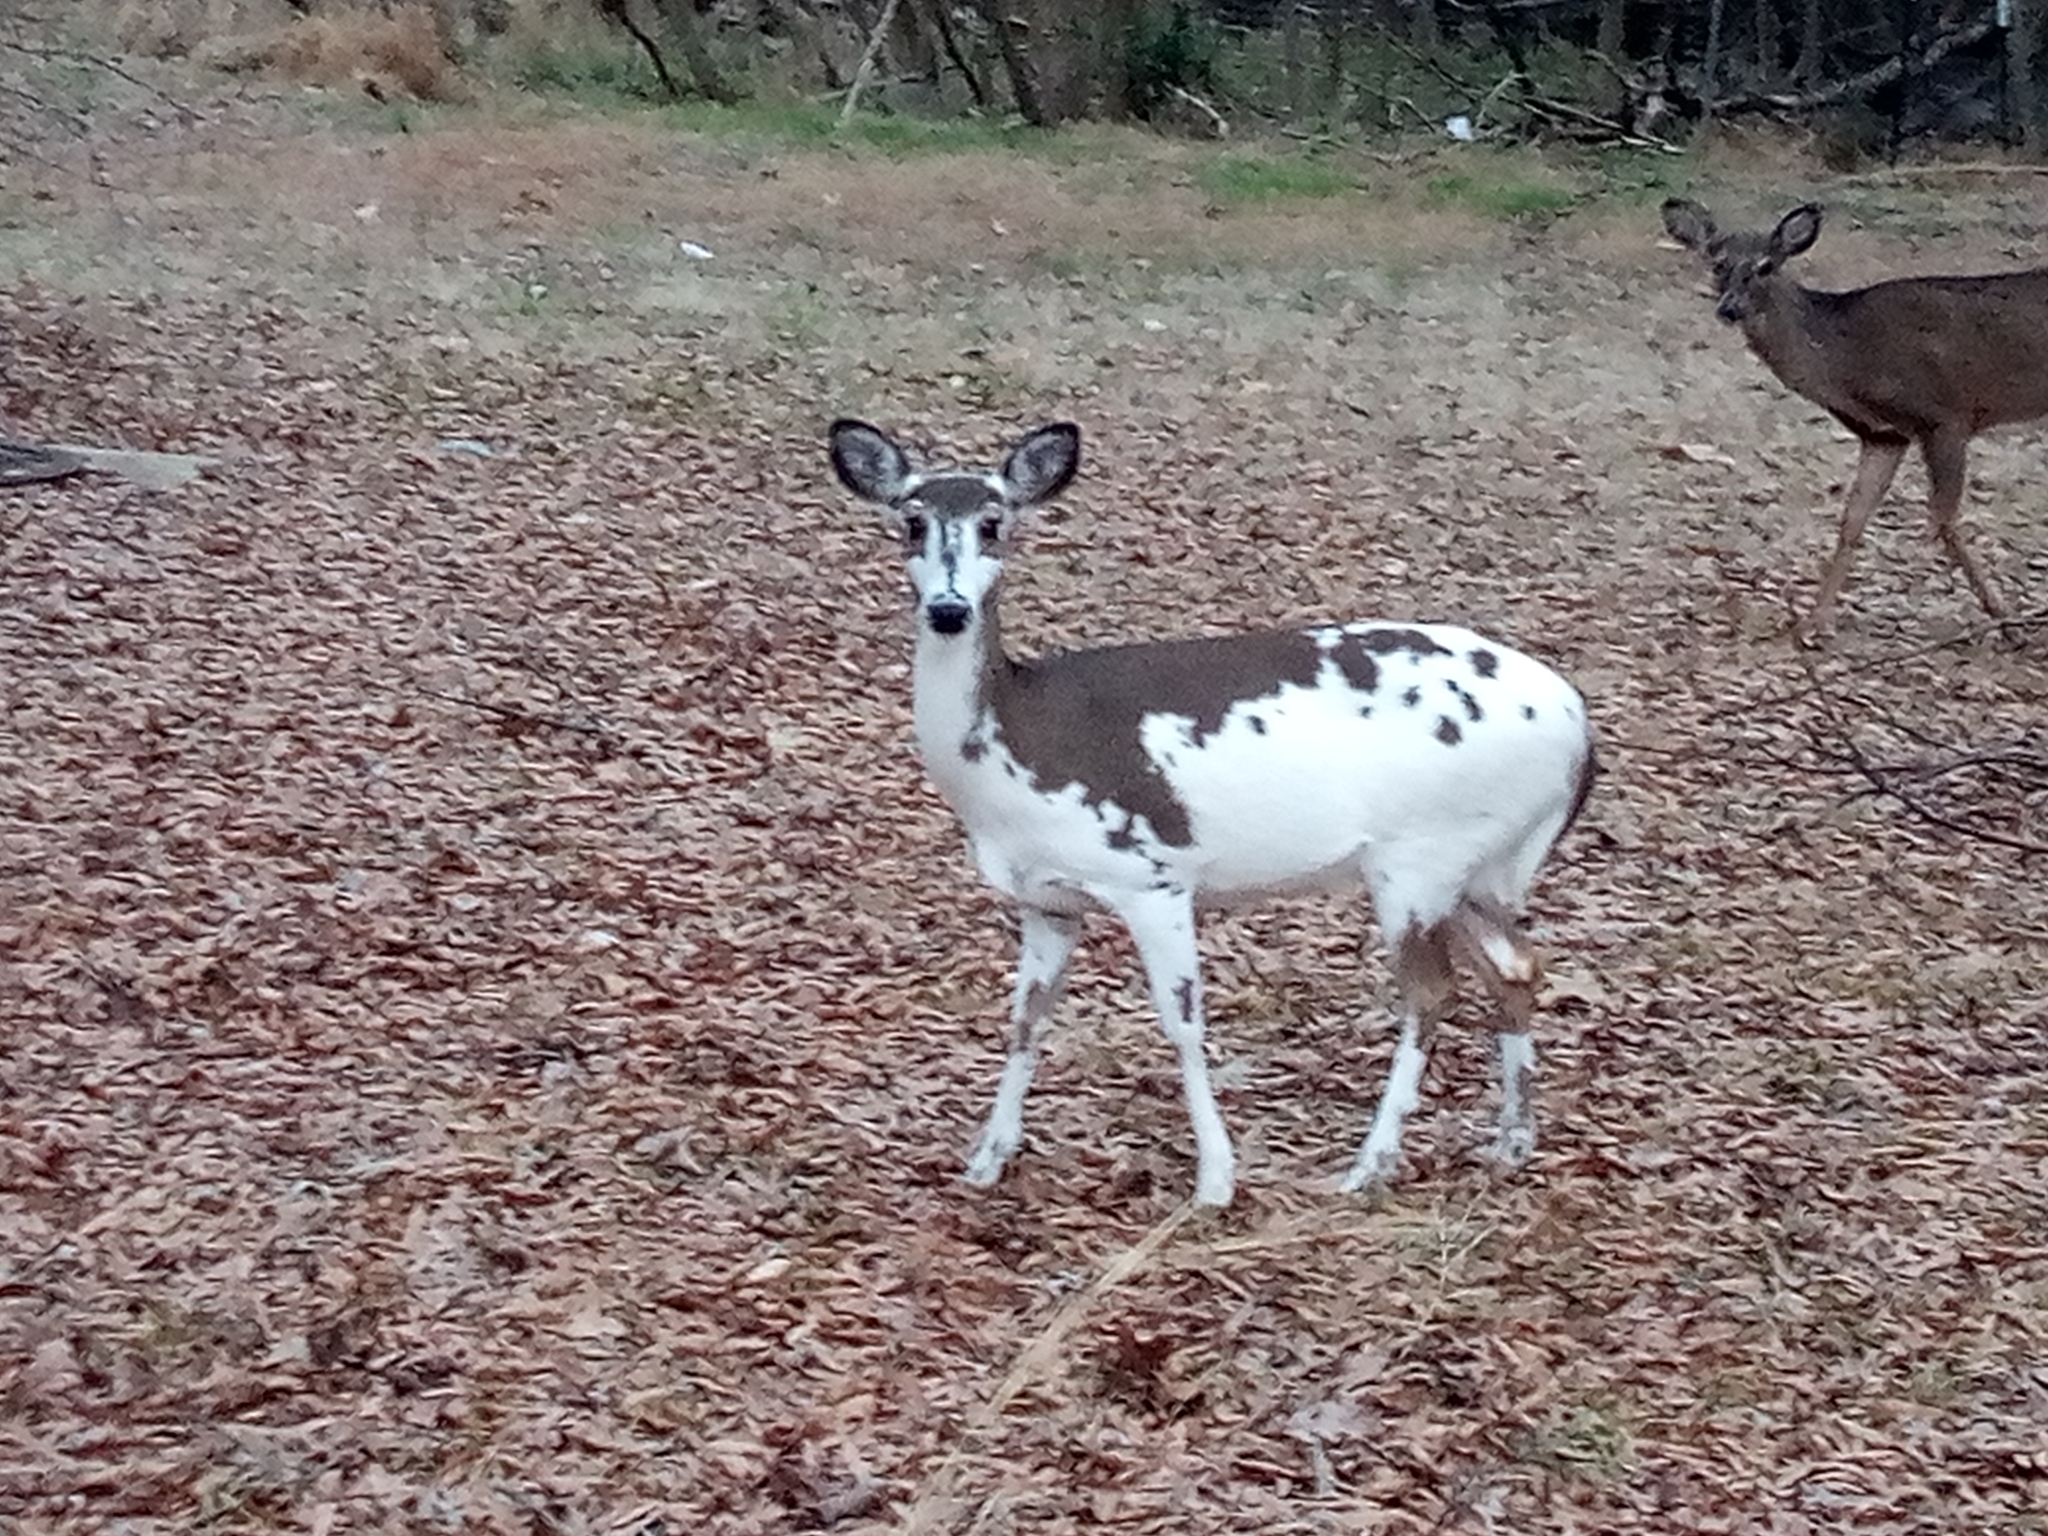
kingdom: Animalia
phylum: Chordata
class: Mammalia
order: Artiodactyla
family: Cervidae
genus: Odocoileus
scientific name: Odocoileus virginianus
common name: White-tailed deer
